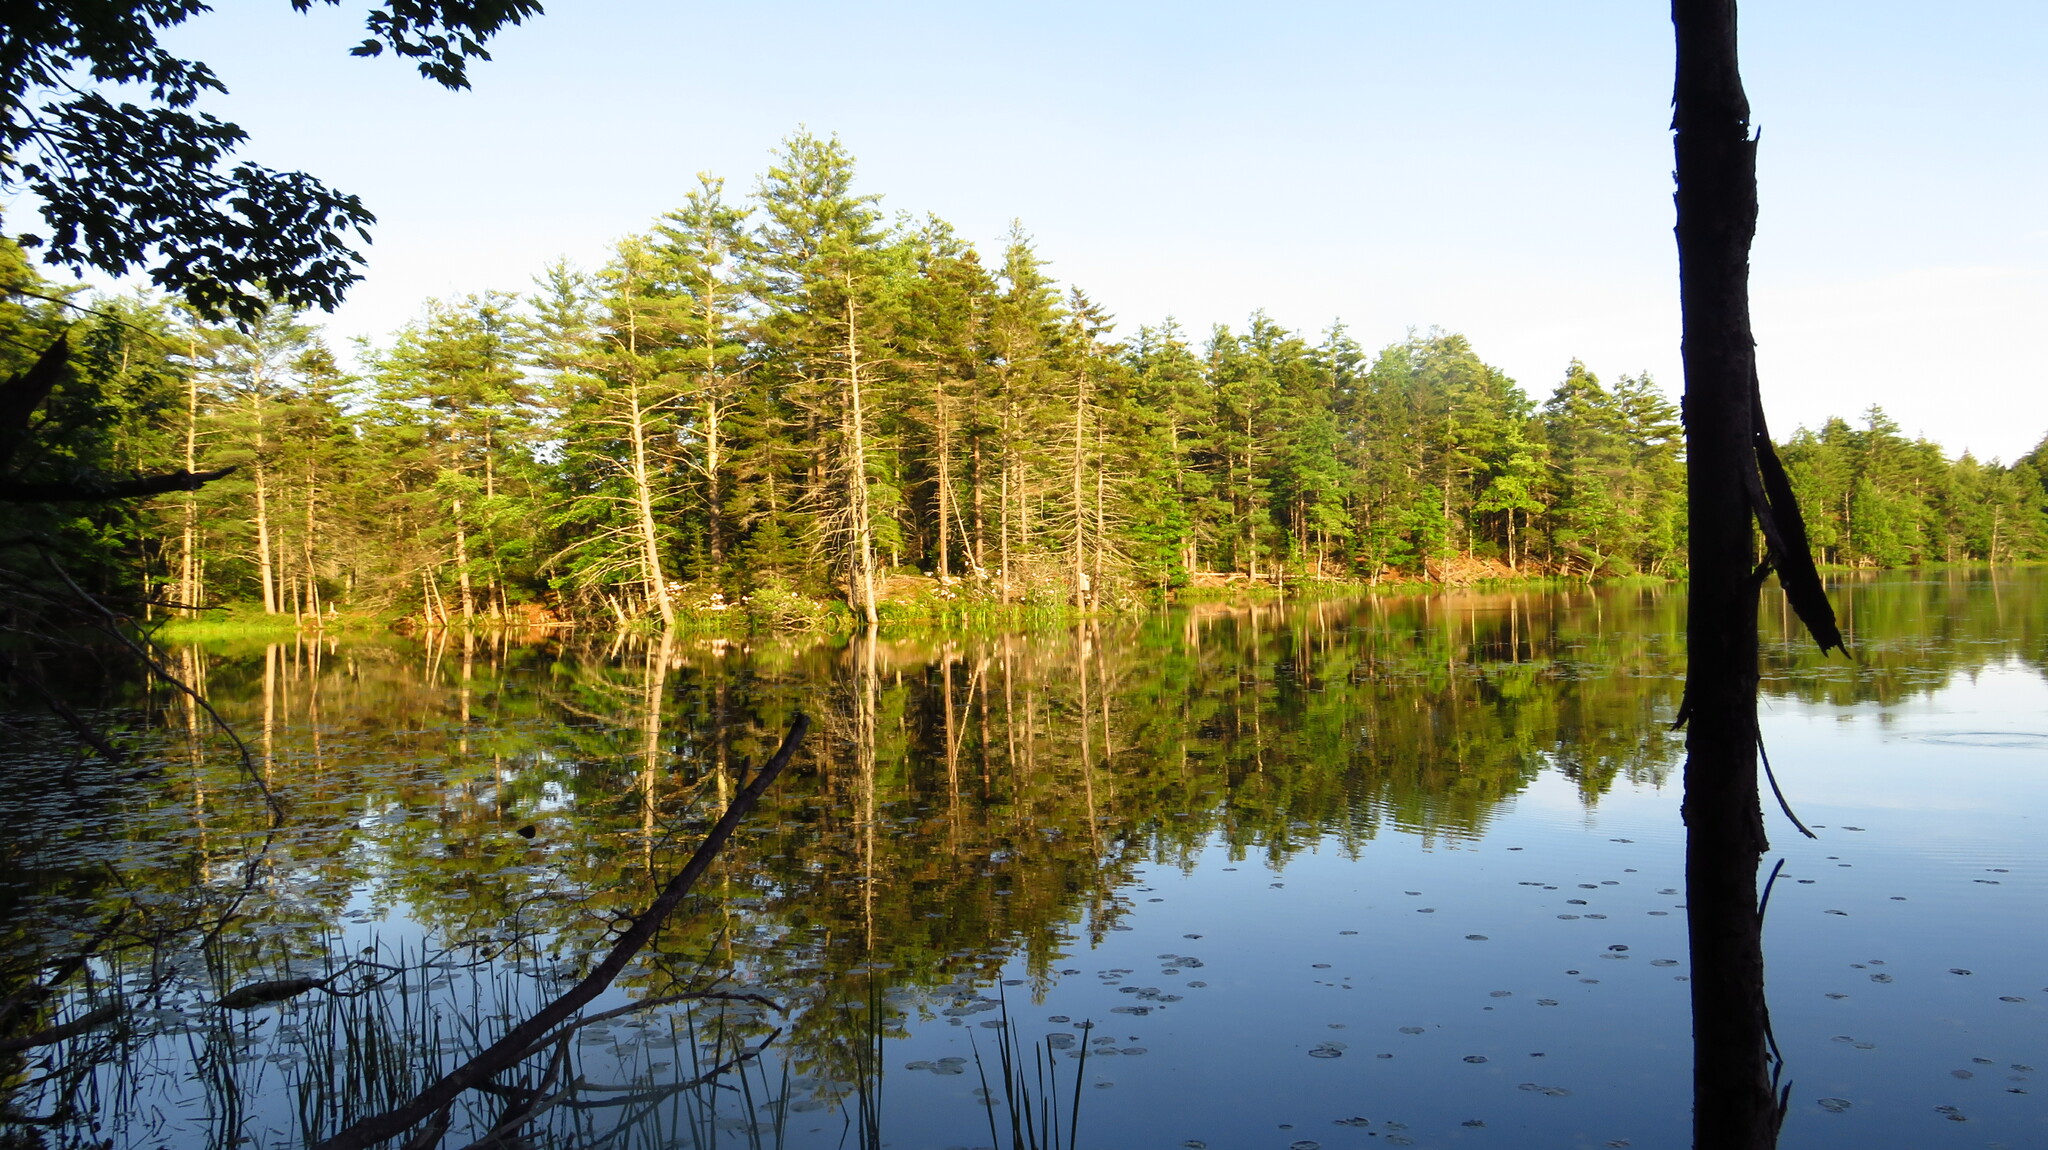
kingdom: Plantae
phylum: Tracheophyta
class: Pinopsida
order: Pinales
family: Pinaceae
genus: Pinus
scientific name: Pinus strobus
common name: Weymouth pine
